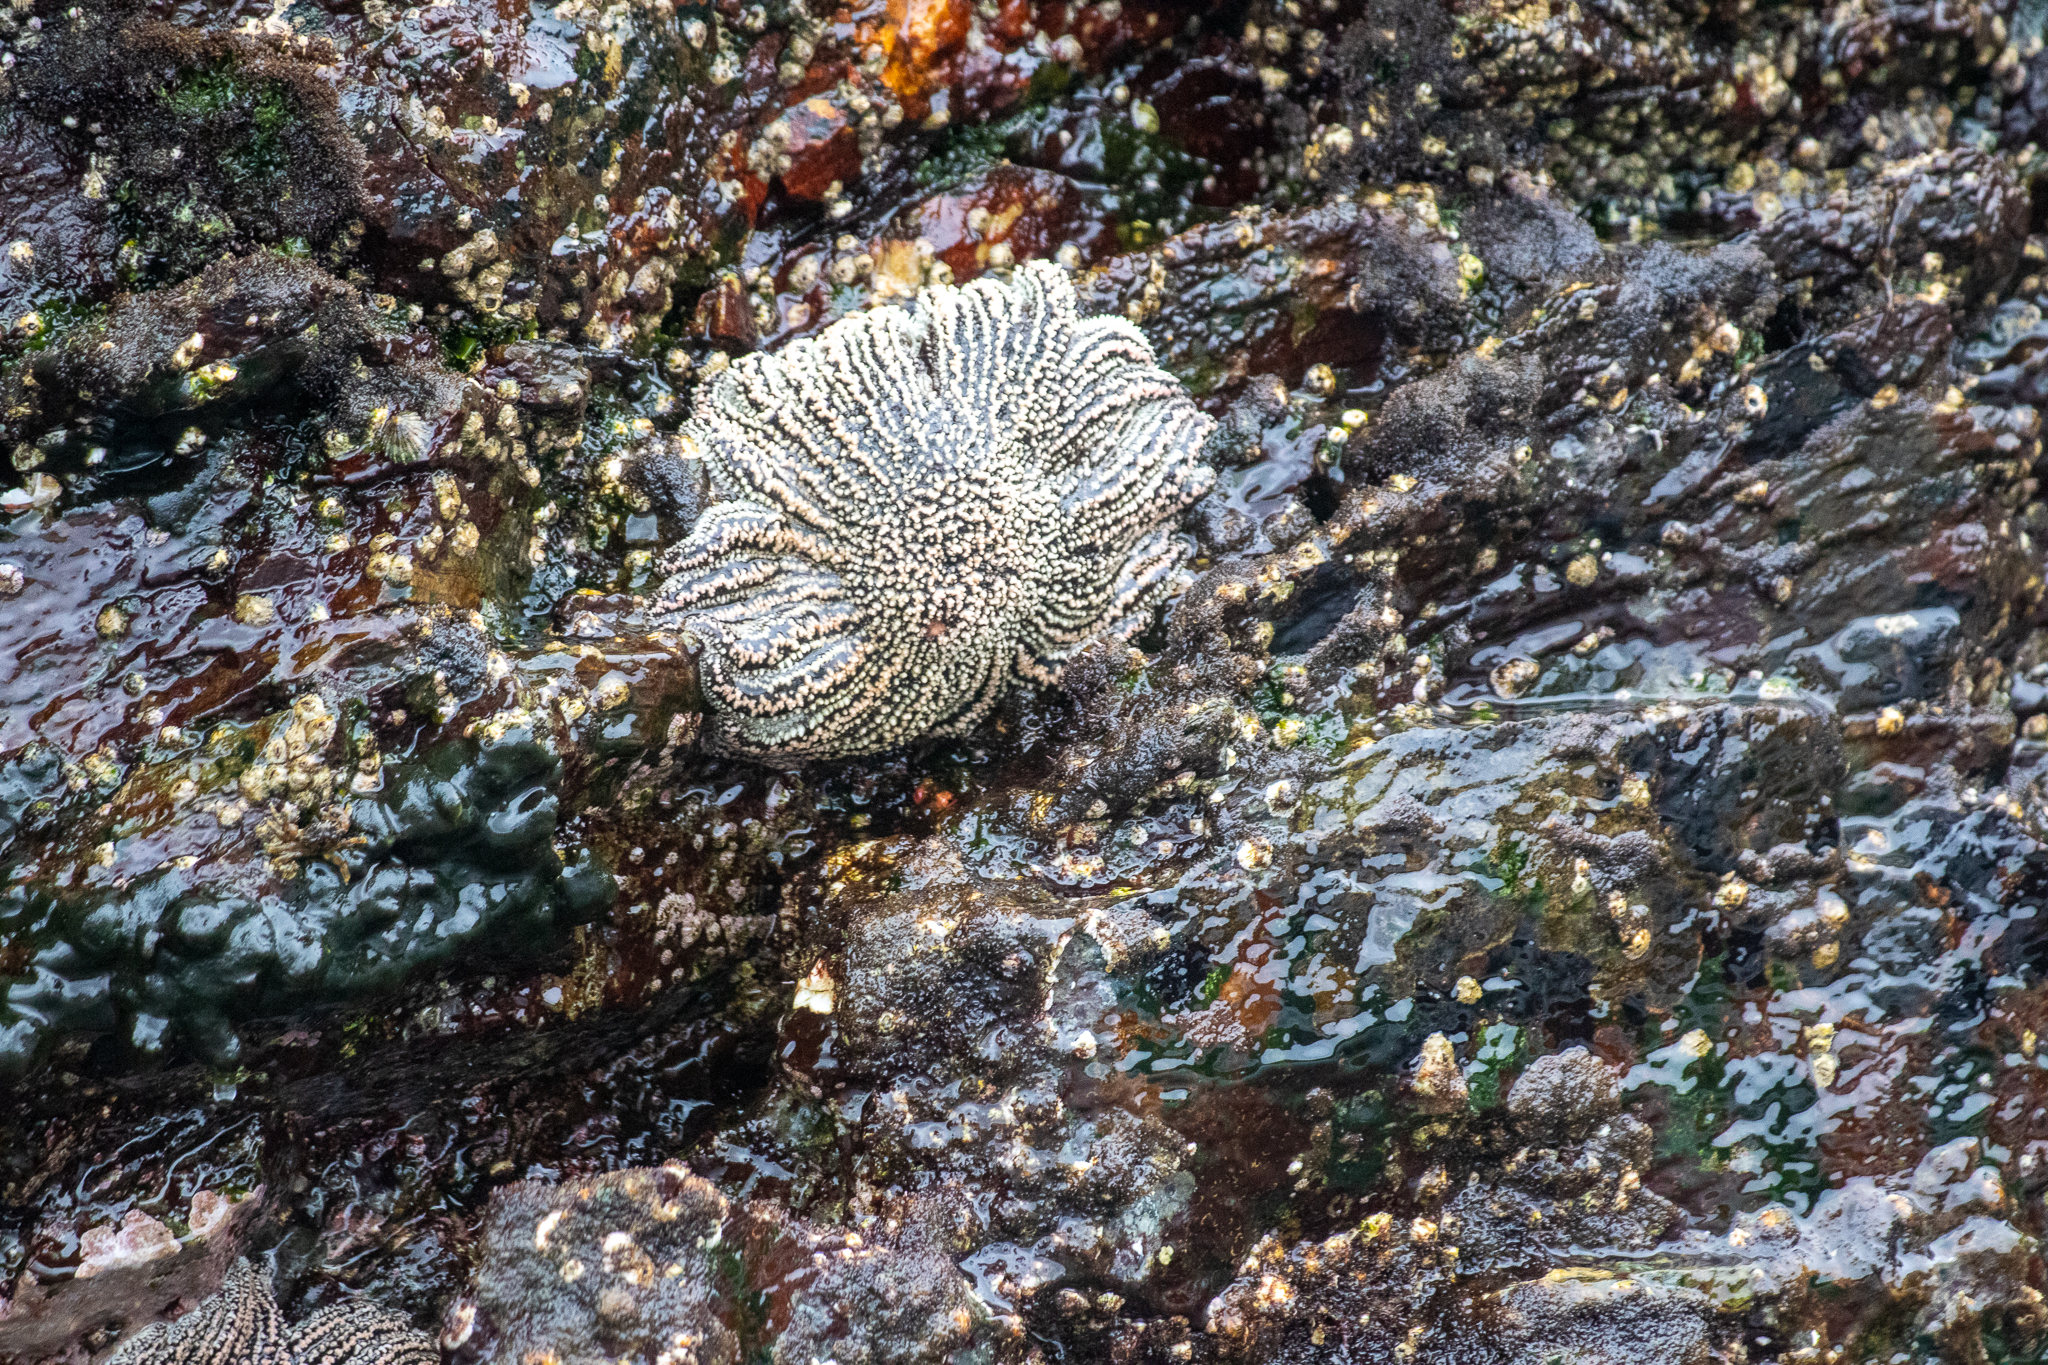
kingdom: Animalia
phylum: Echinodermata
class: Asteroidea
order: Forcipulatida
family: Heliasteridae
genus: Heliaster
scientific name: Heliaster helianthus
